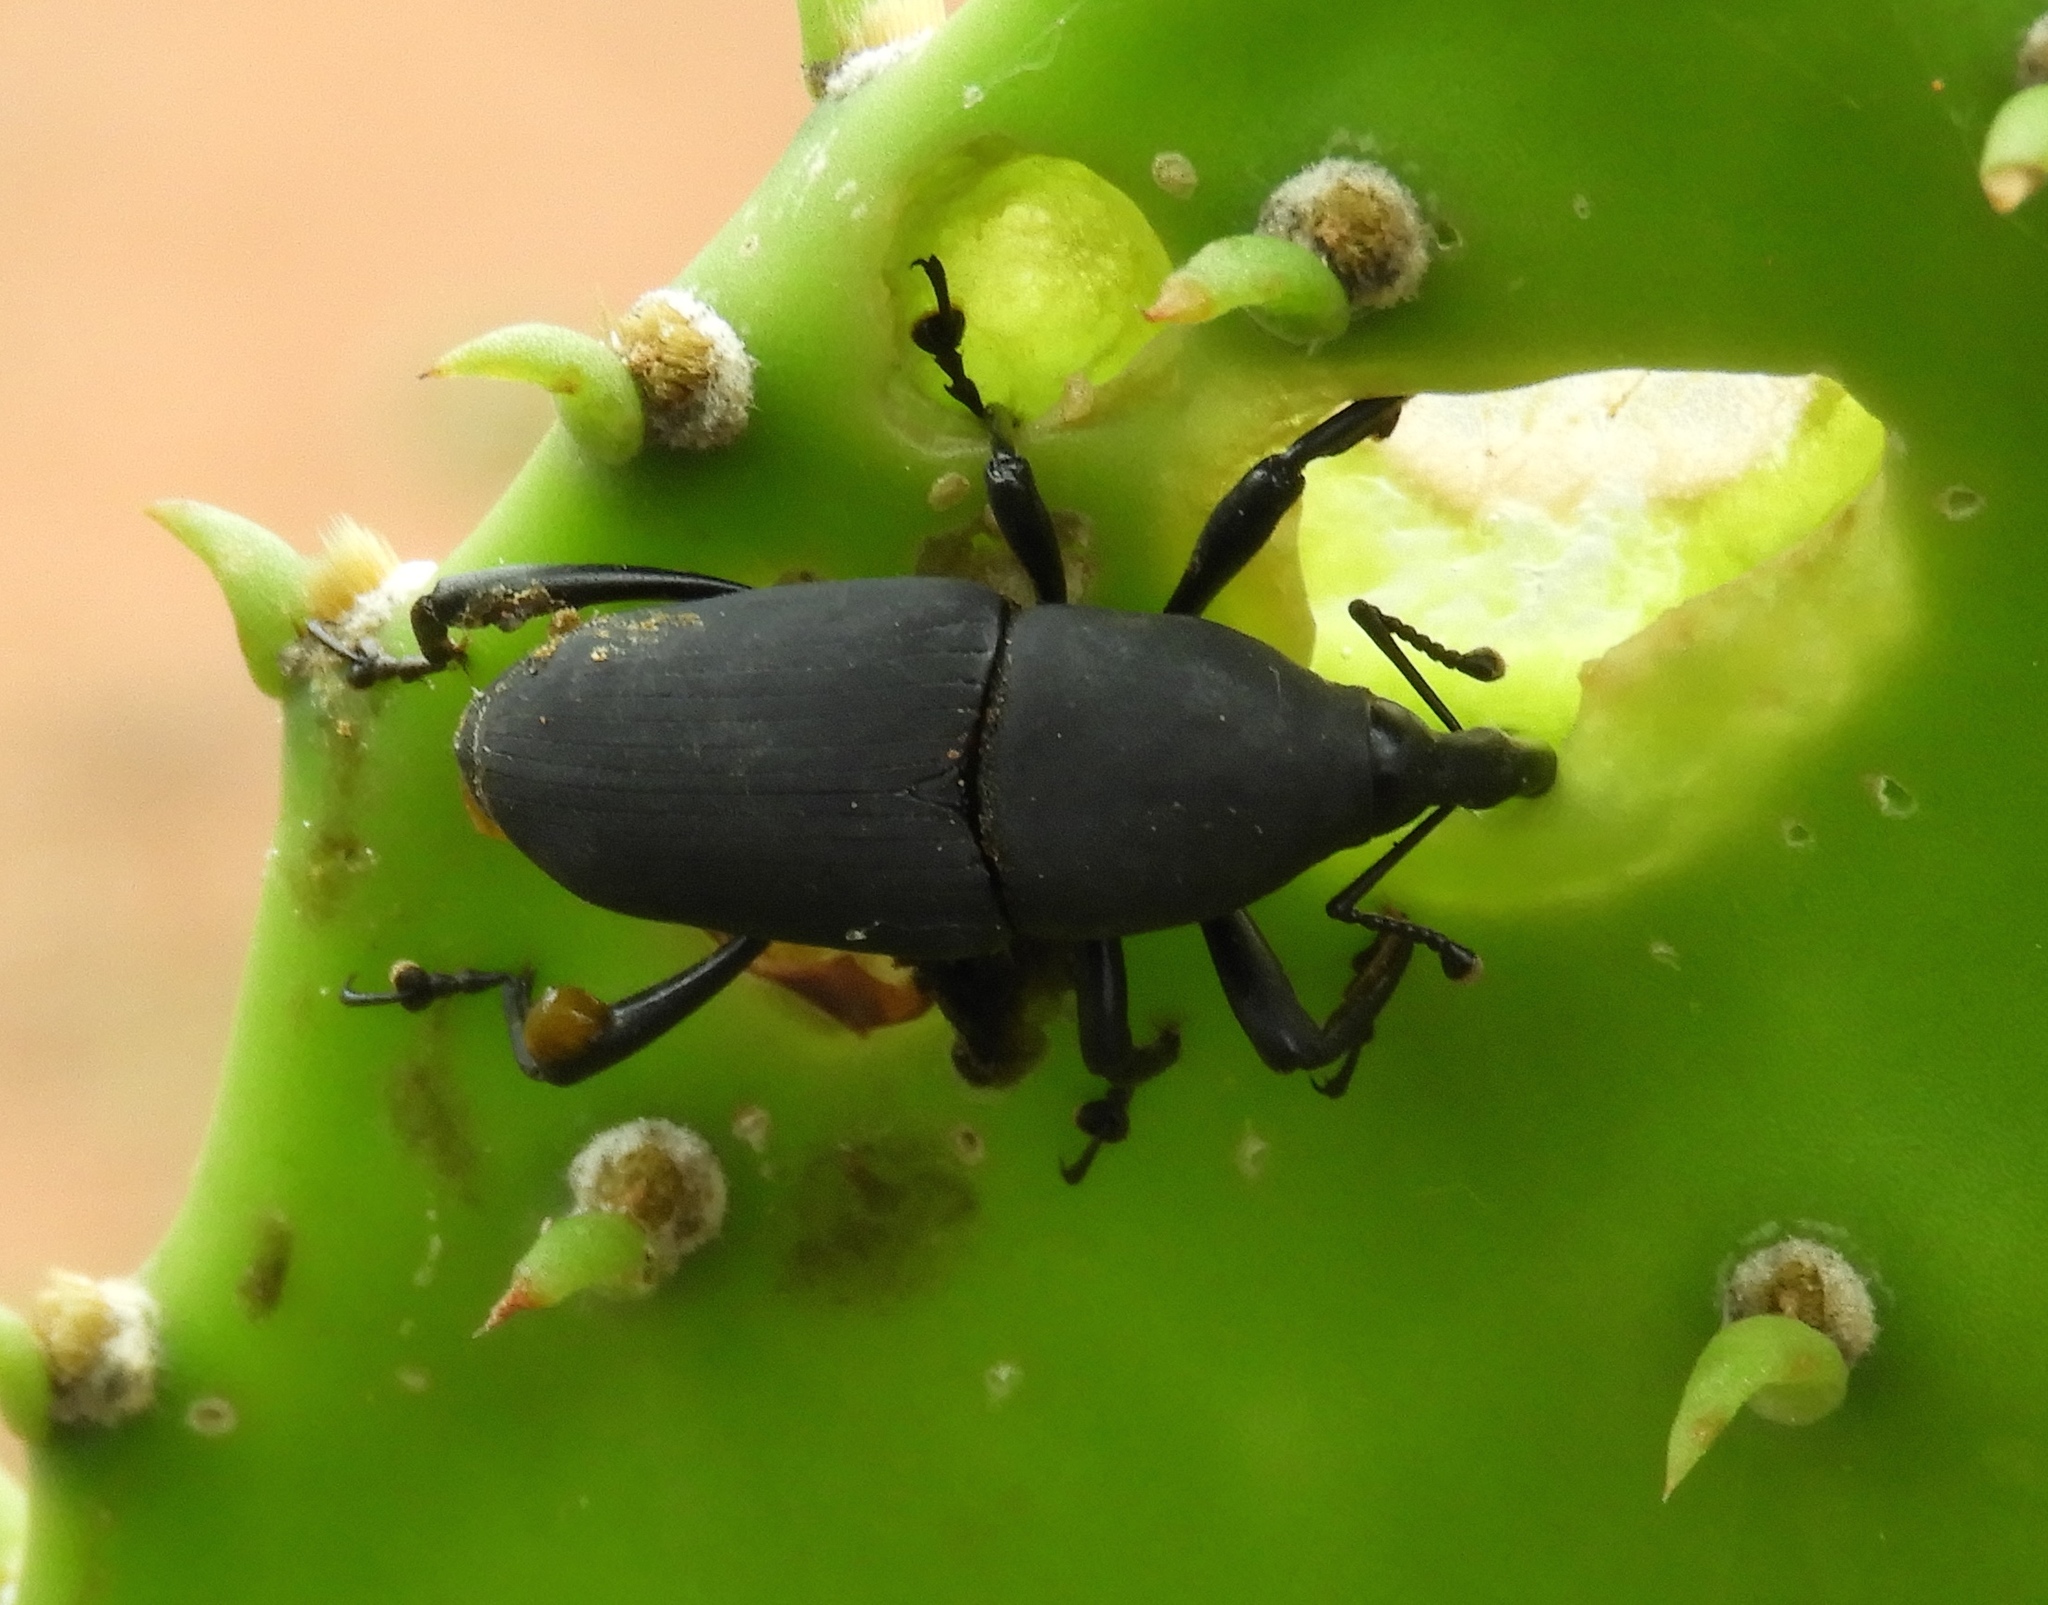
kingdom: Animalia
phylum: Arthropoda
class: Insecta
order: Coleoptera
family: Dryophthoridae
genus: Cactophagus
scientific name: Cactophagus spinolae
